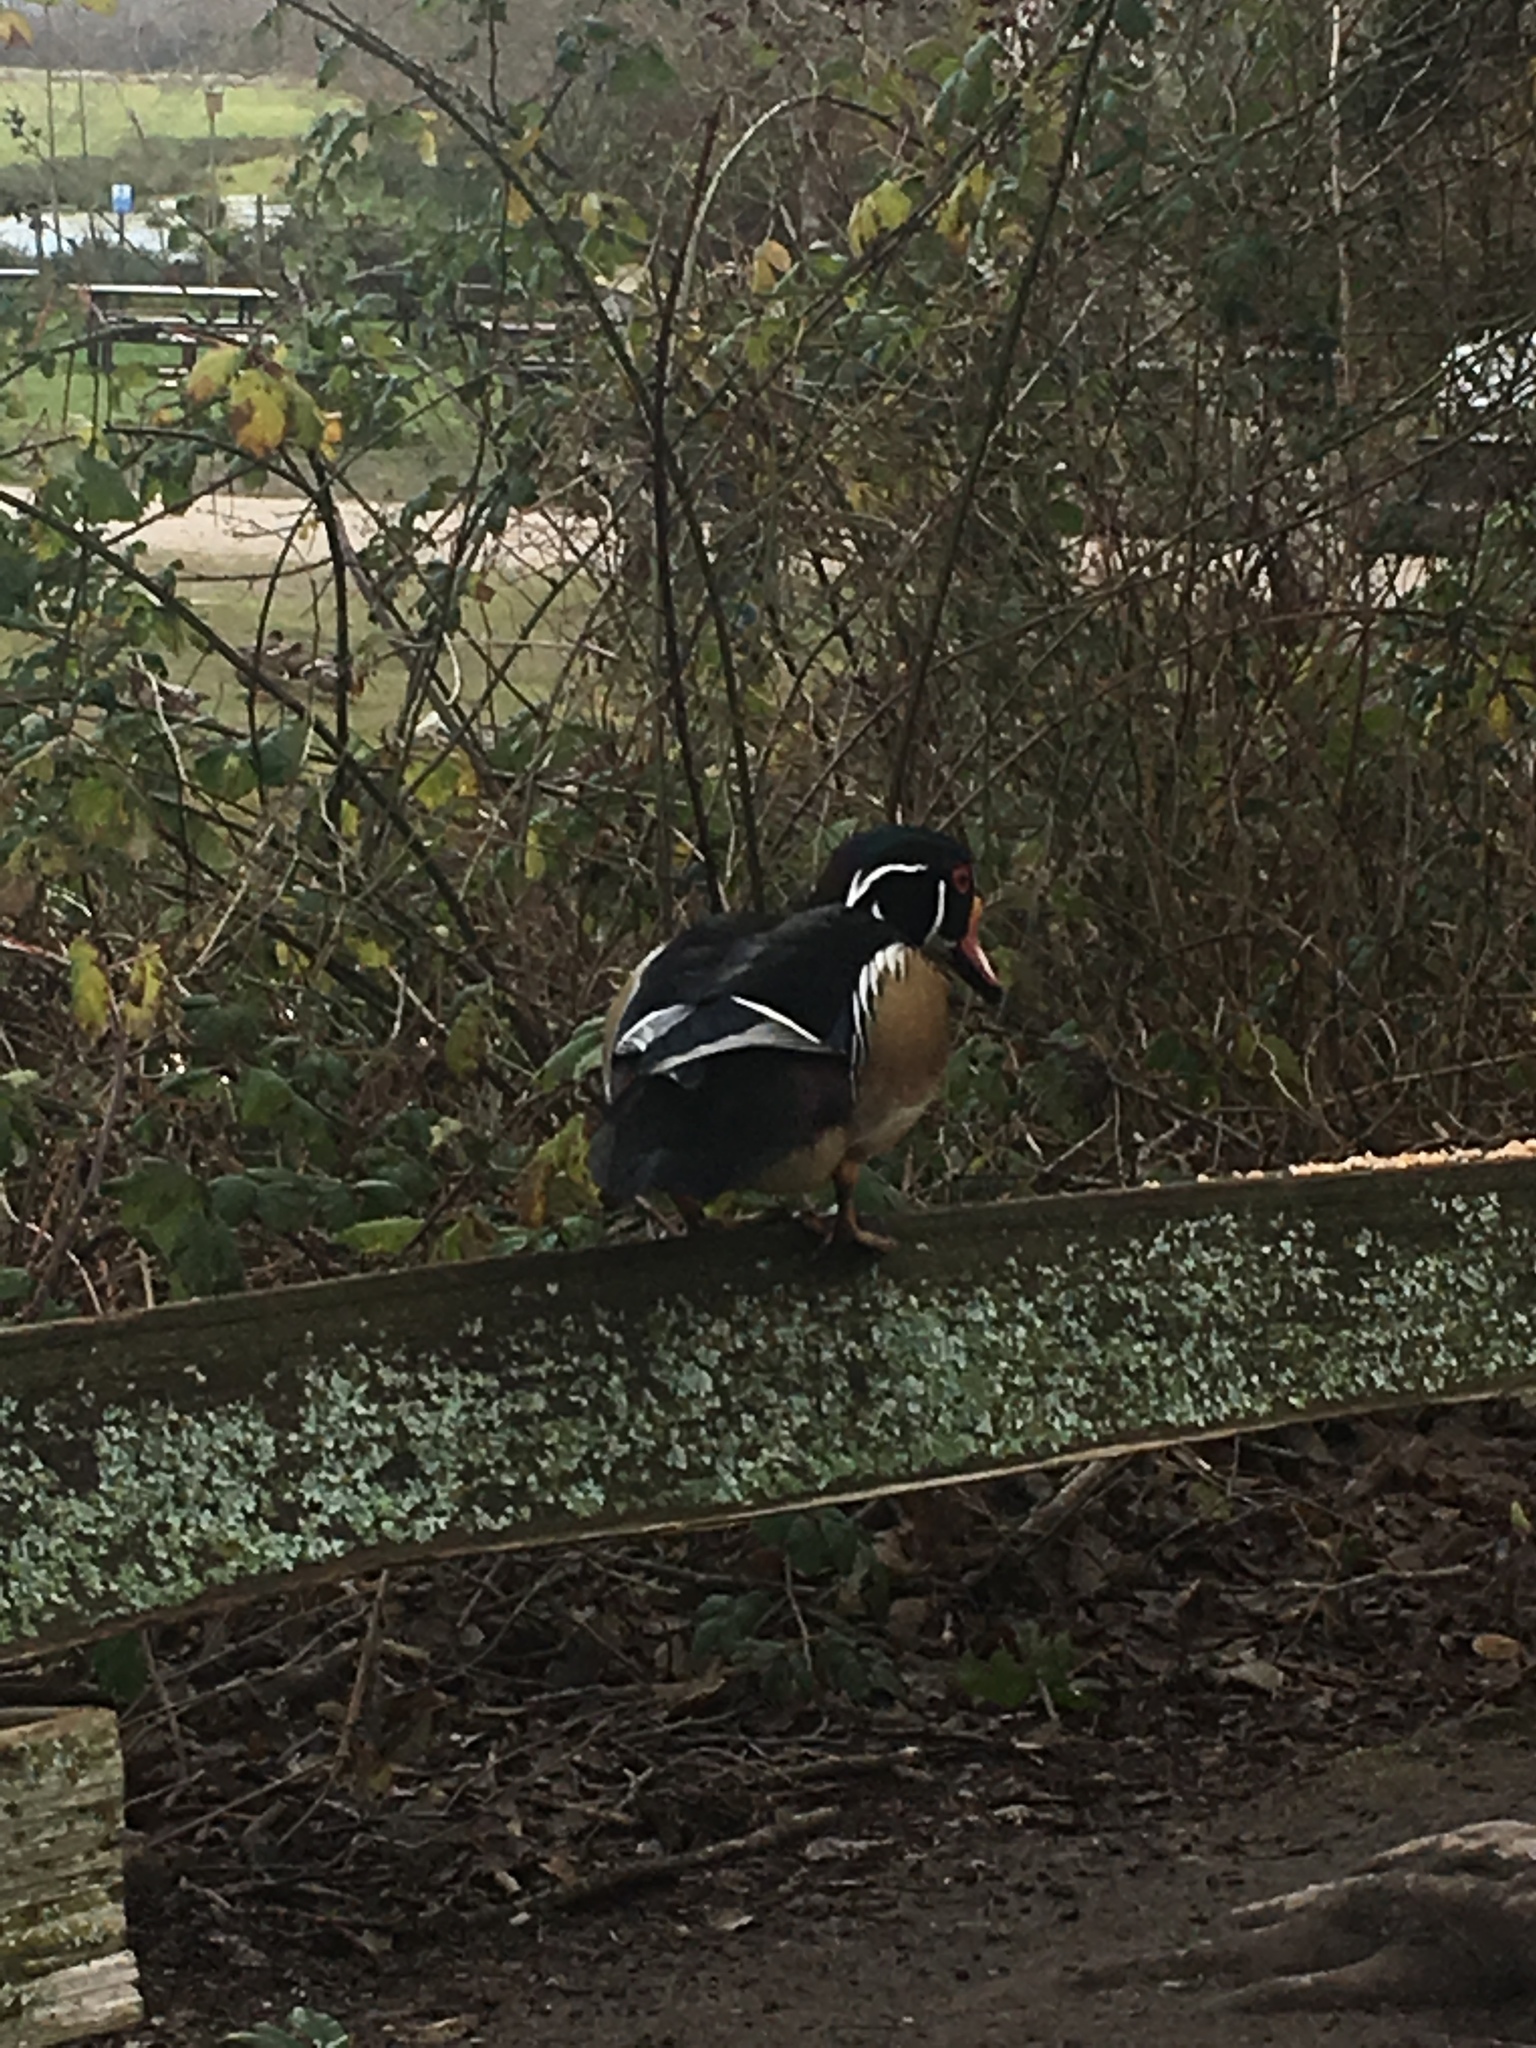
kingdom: Animalia
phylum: Chordata
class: Aves
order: Anseriformes
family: Anatidae
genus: Aix
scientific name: Aix sponsa
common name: Wood duck
